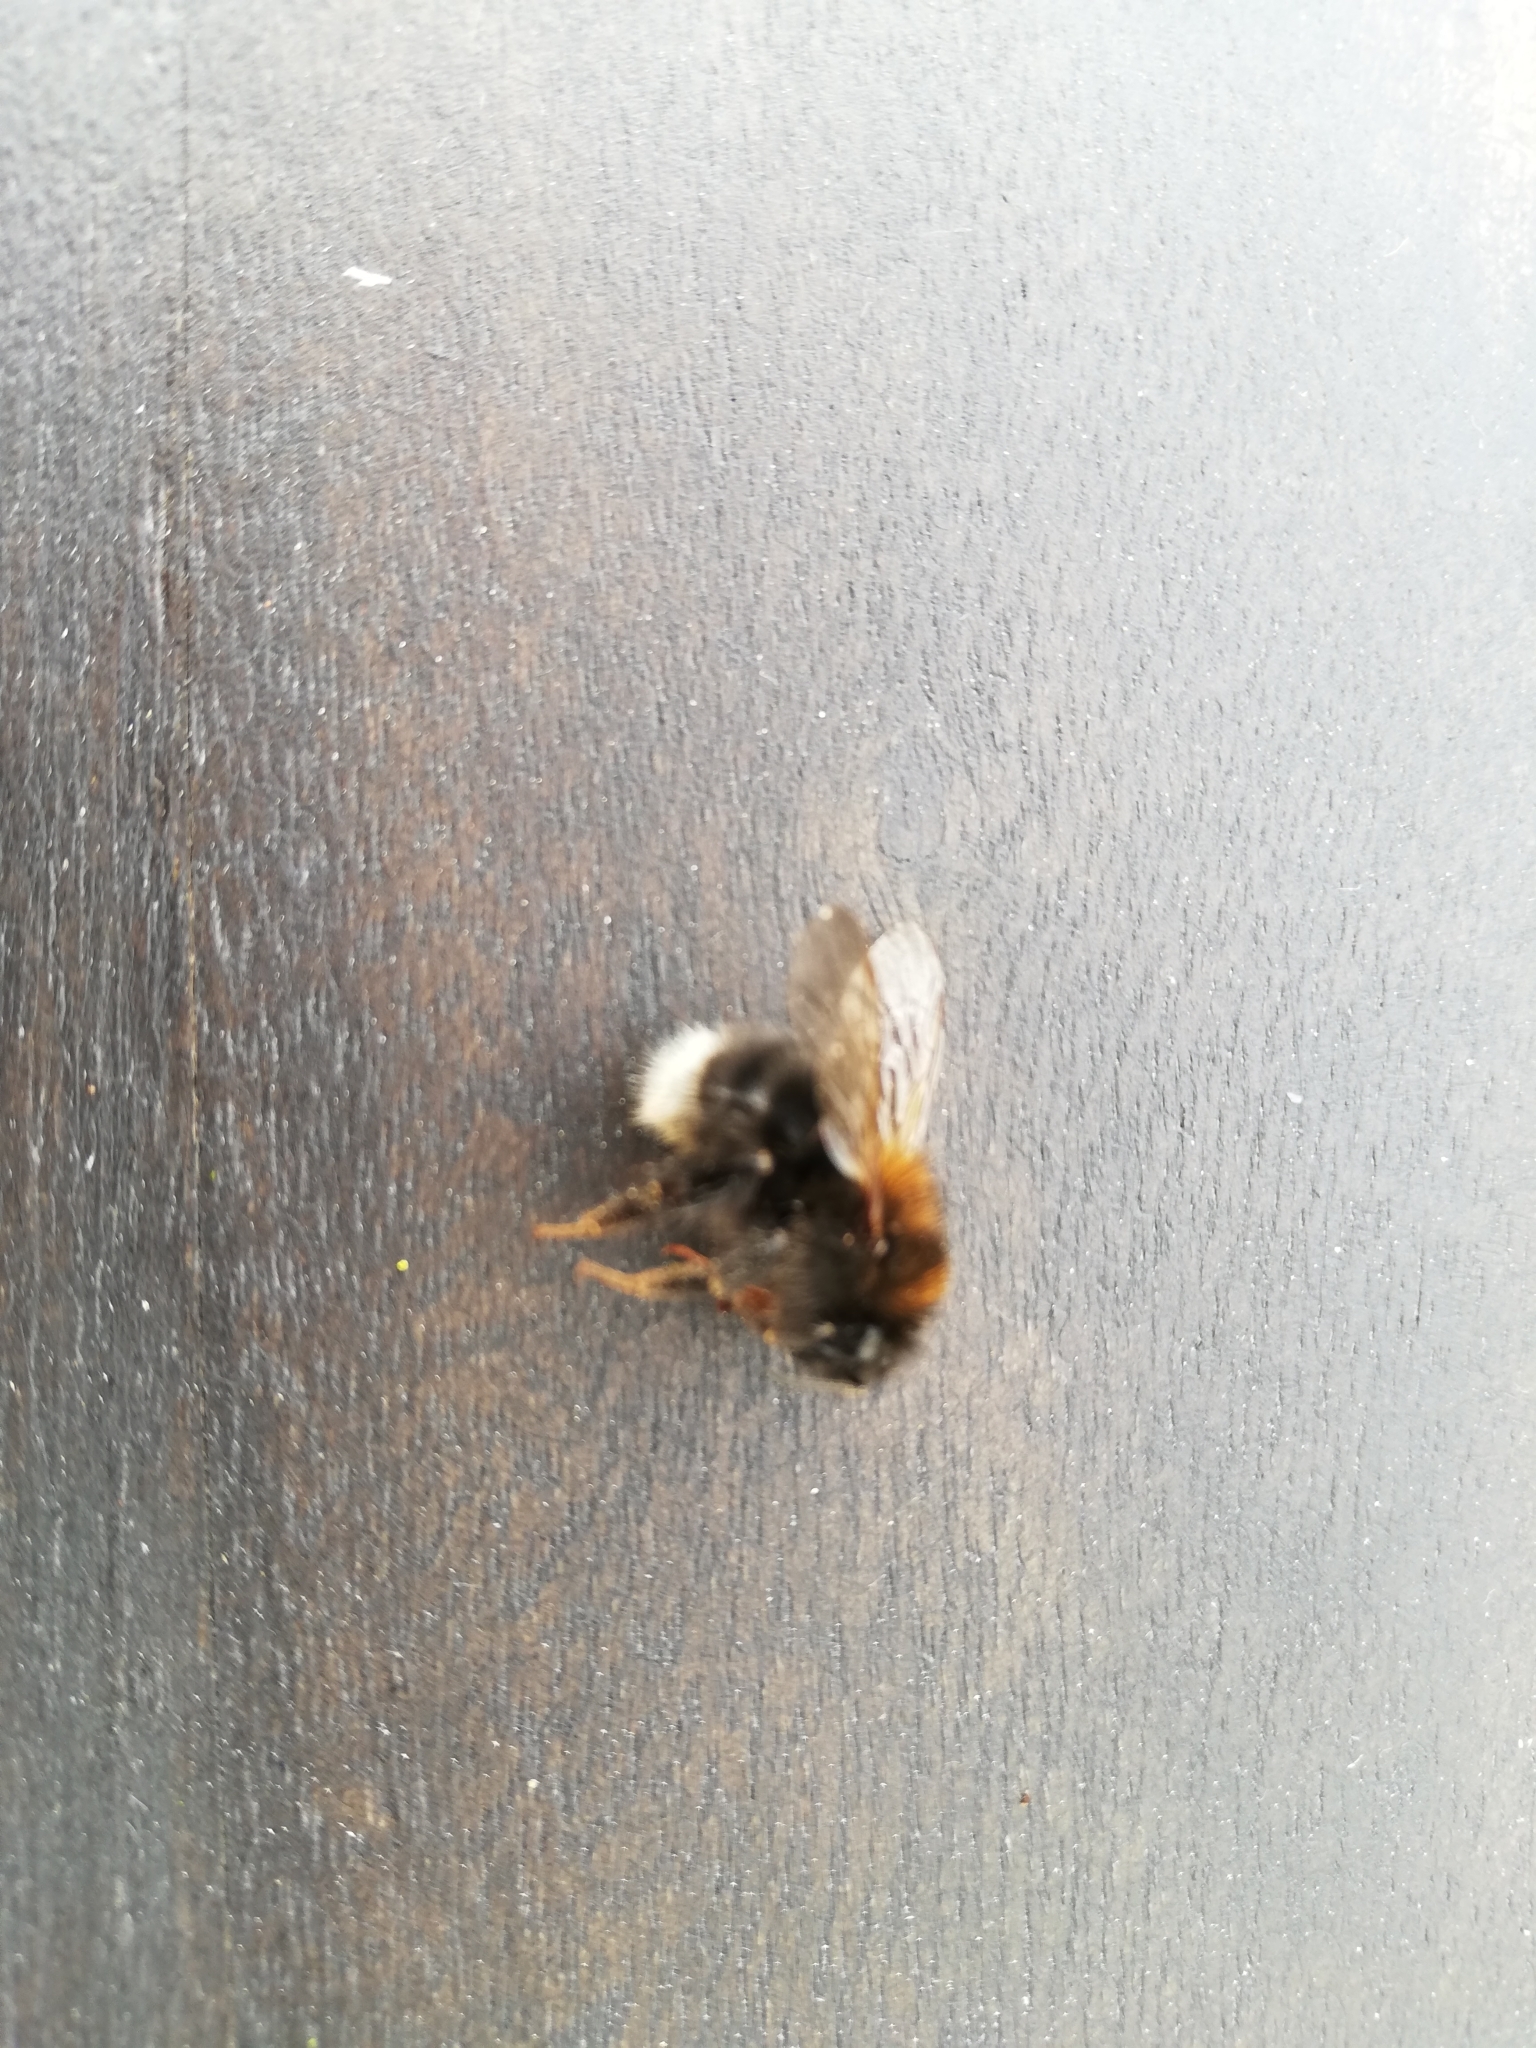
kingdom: Animalia
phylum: Arthropoda
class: Insecta
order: Hymenoptera
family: Apidae
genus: Bombus
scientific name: Bombus hypnorum
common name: New garden bumblebee
